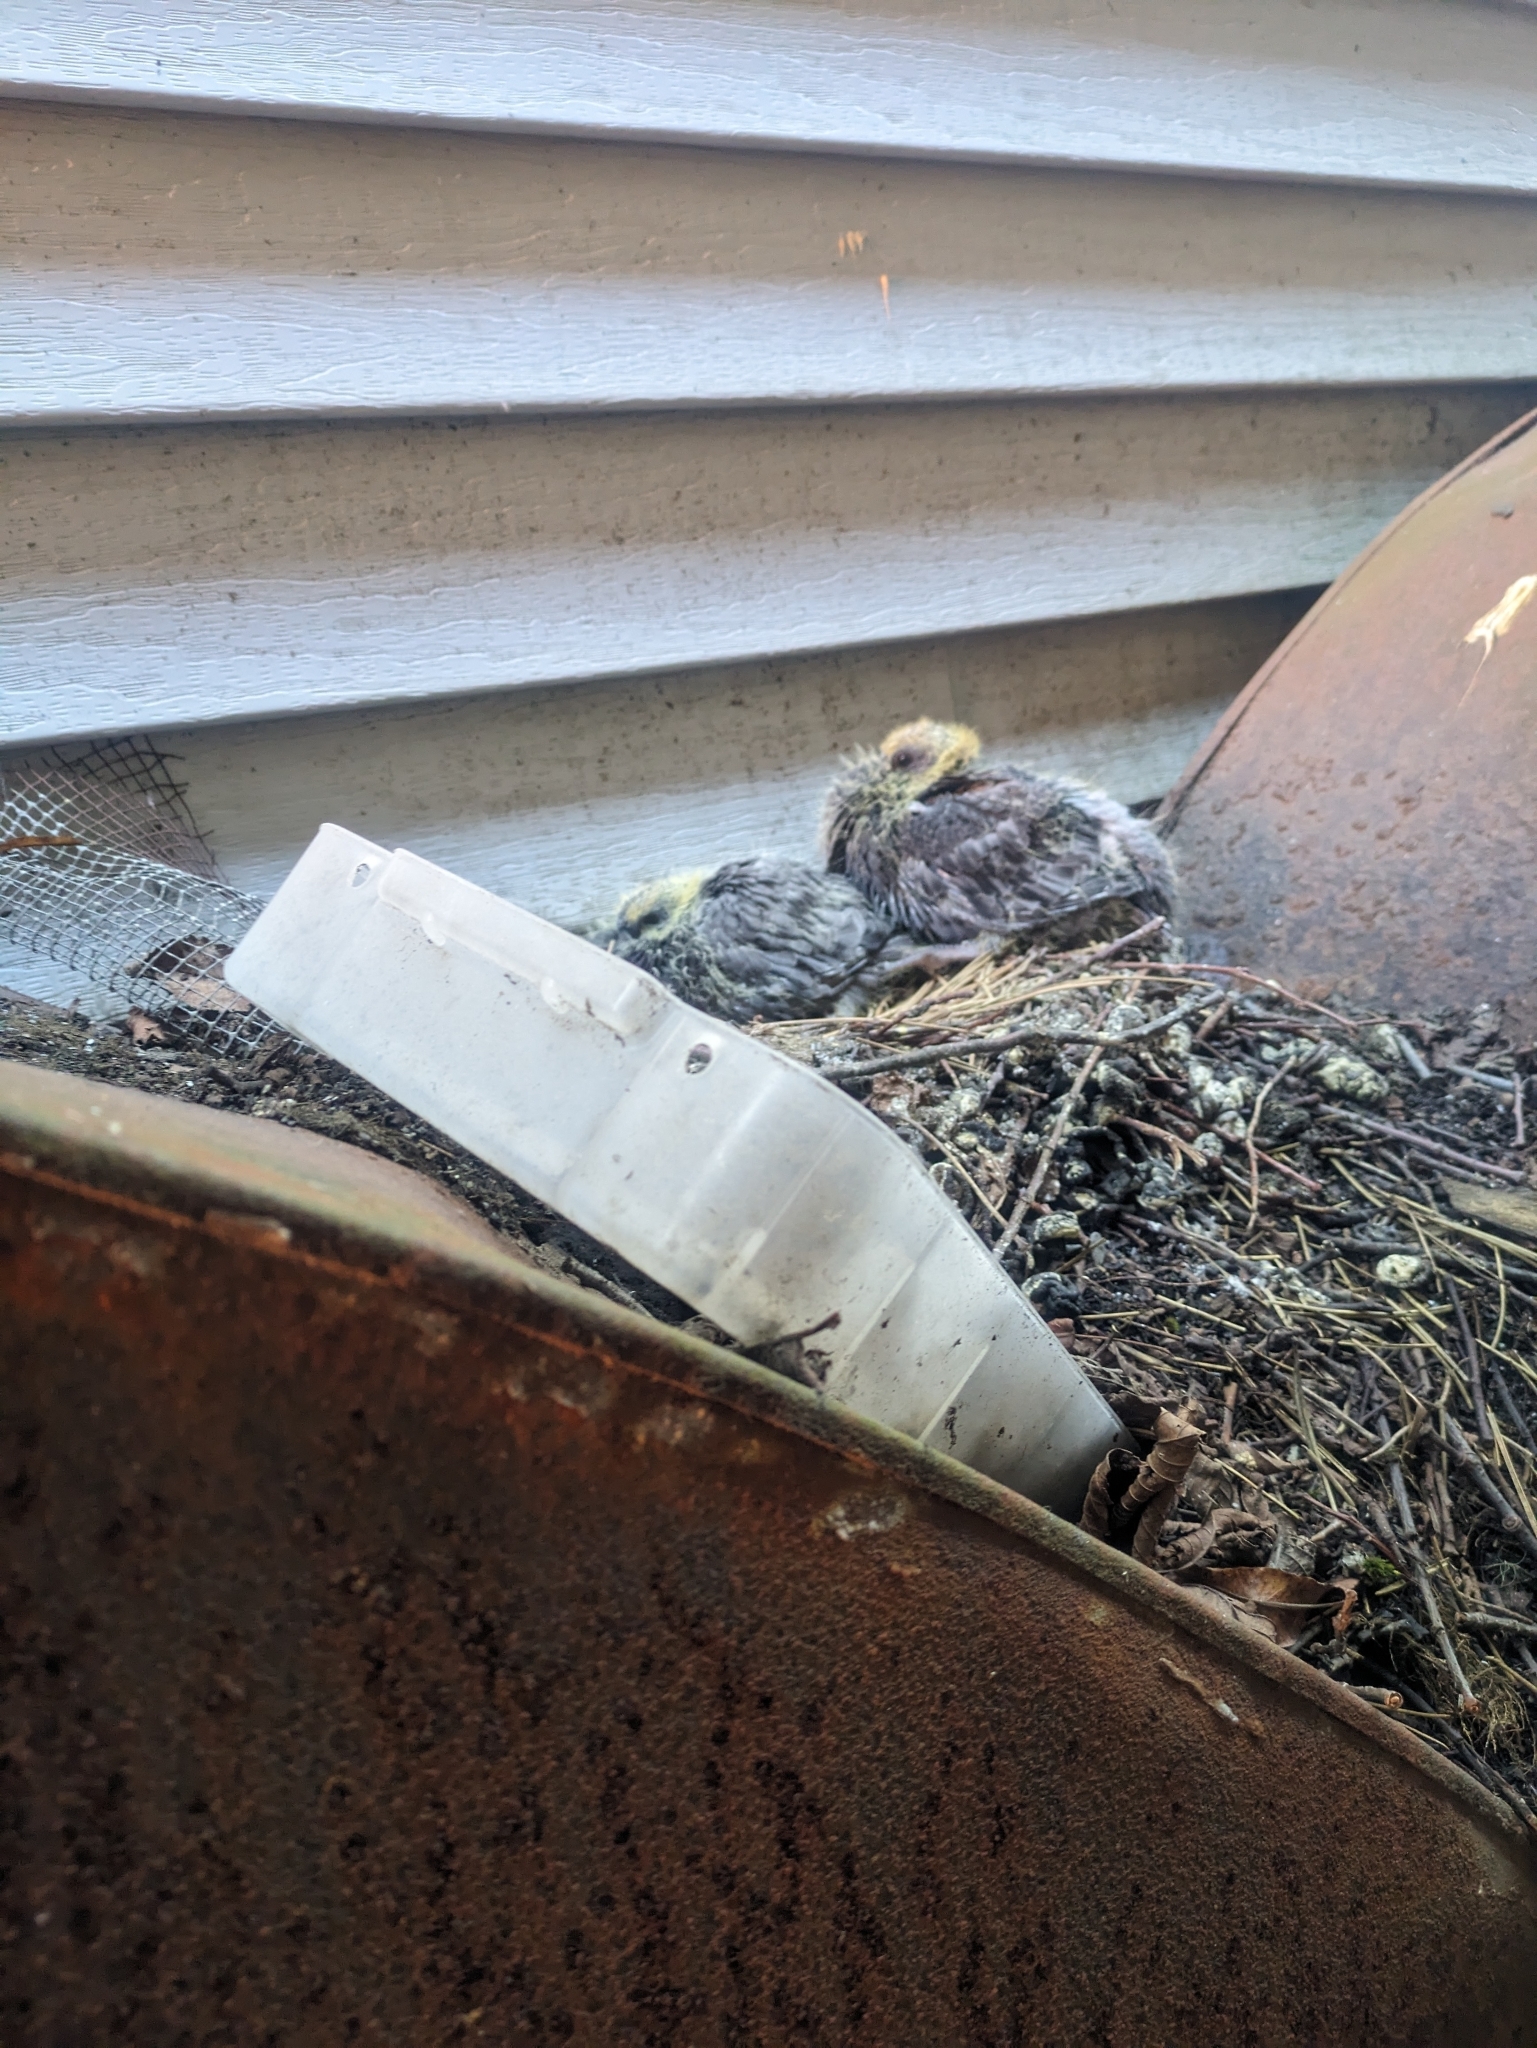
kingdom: Animalia
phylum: Chordata
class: Aves
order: Columbiformes
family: Columbidae
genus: Columba
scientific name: Columba livia
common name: Rock pigeon
